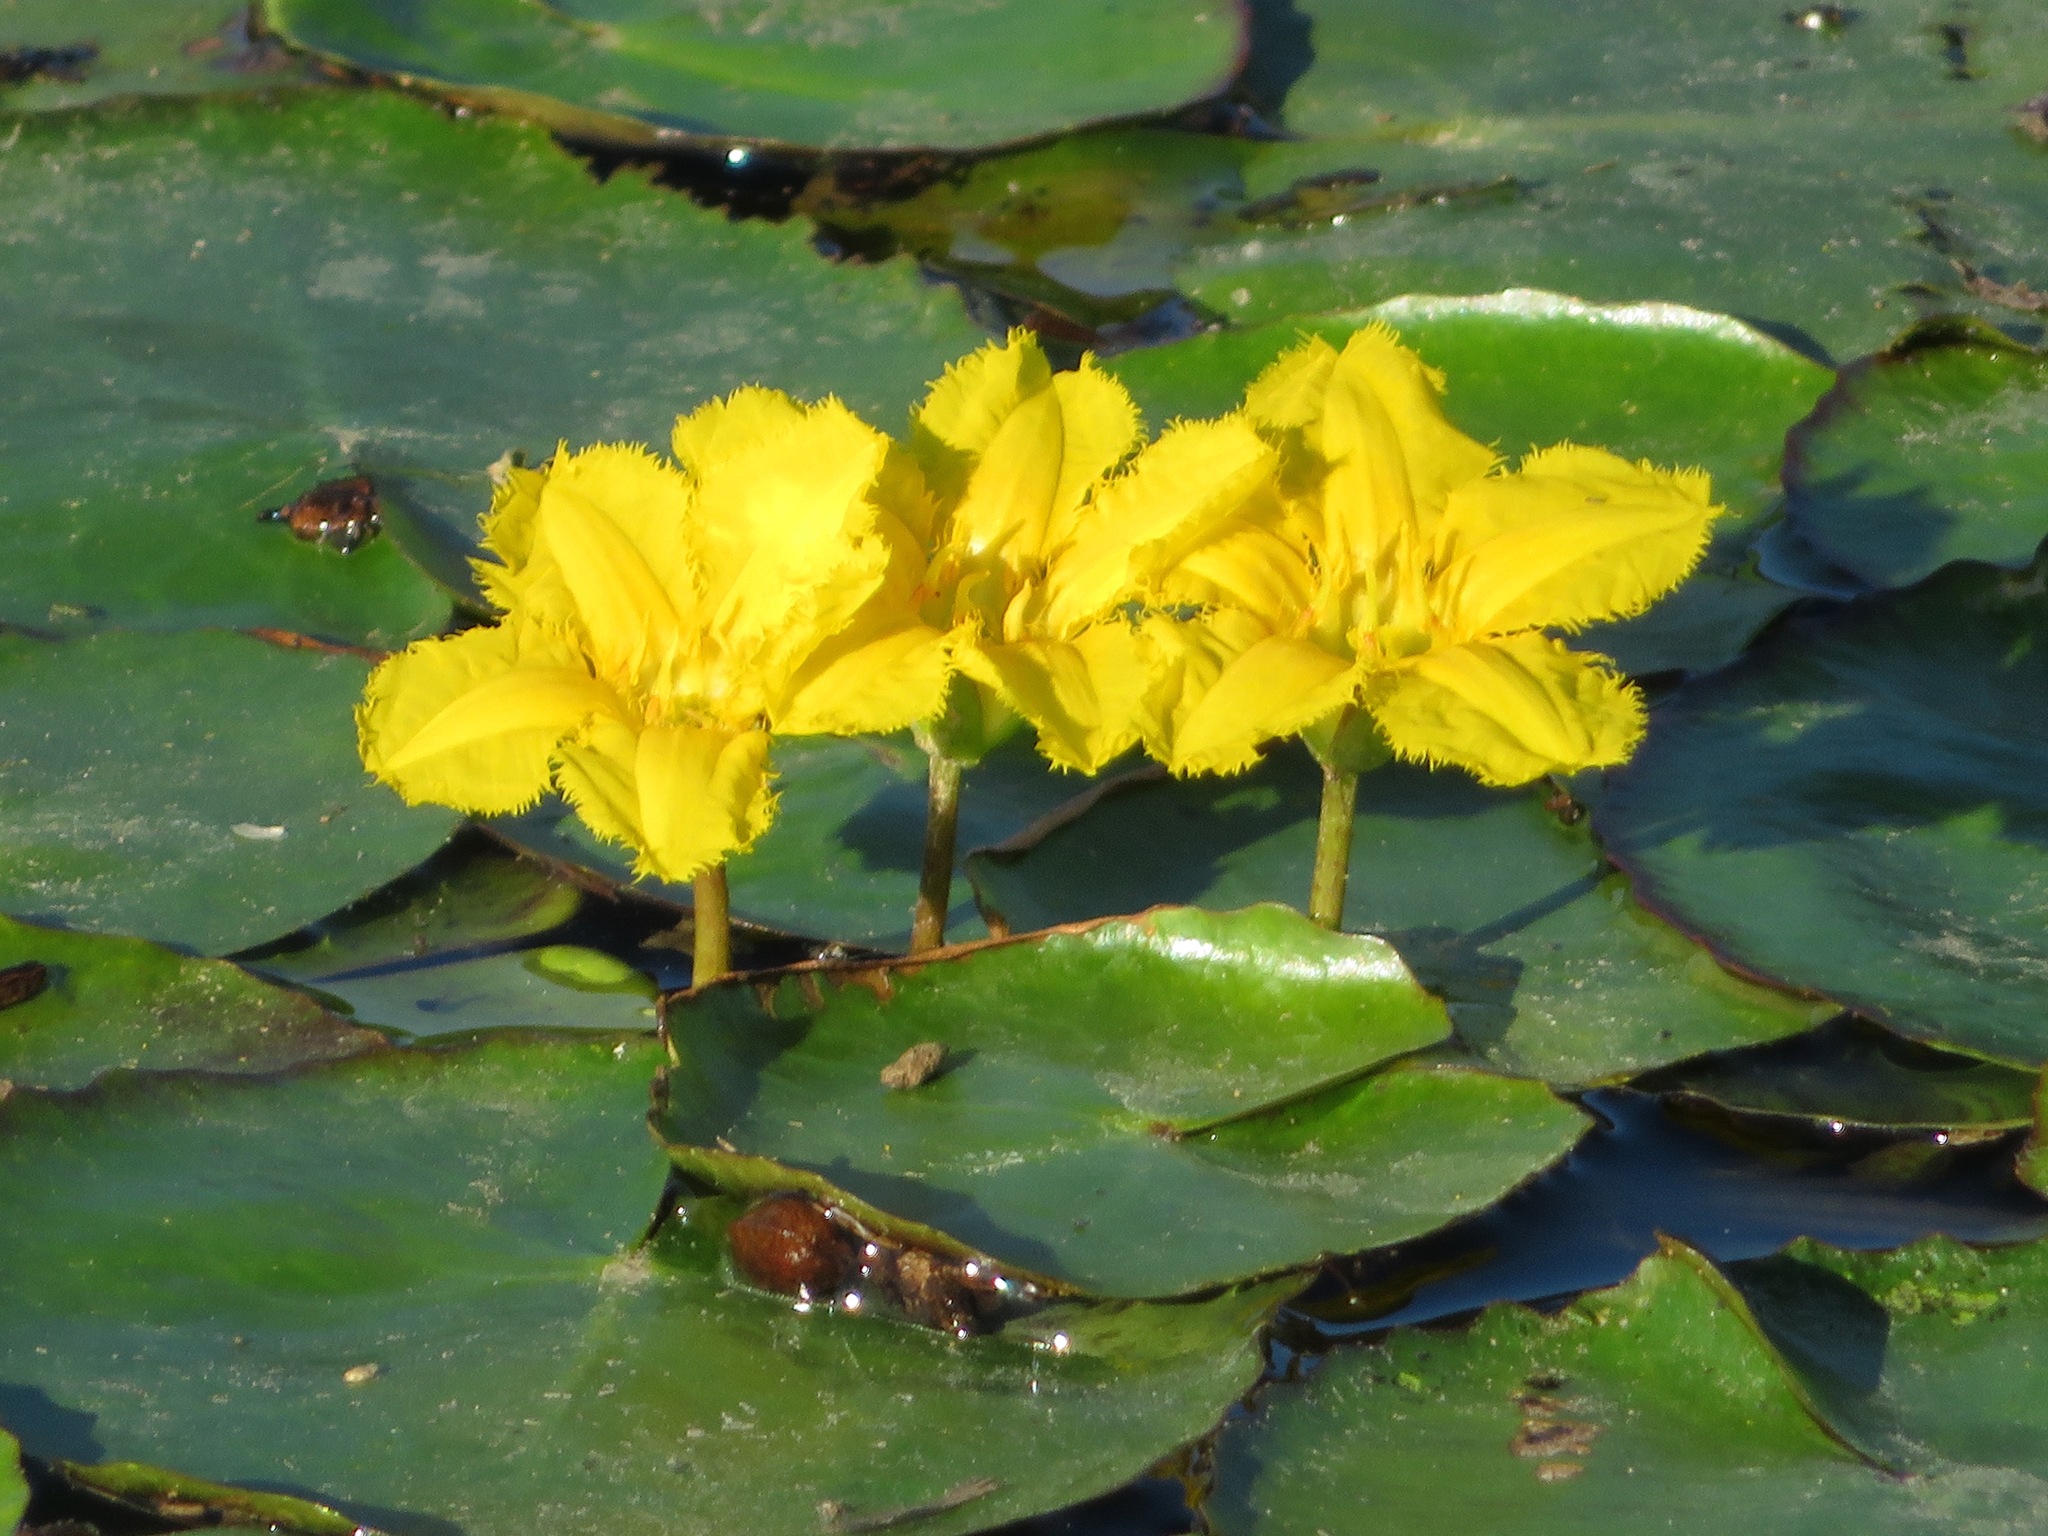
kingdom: Plantae
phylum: Tracheophyta
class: Magnoliopsida
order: Asterales
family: Menyanthaceae
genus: Nymphoides
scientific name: Nymphoides peltata
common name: Fringed water-lily
